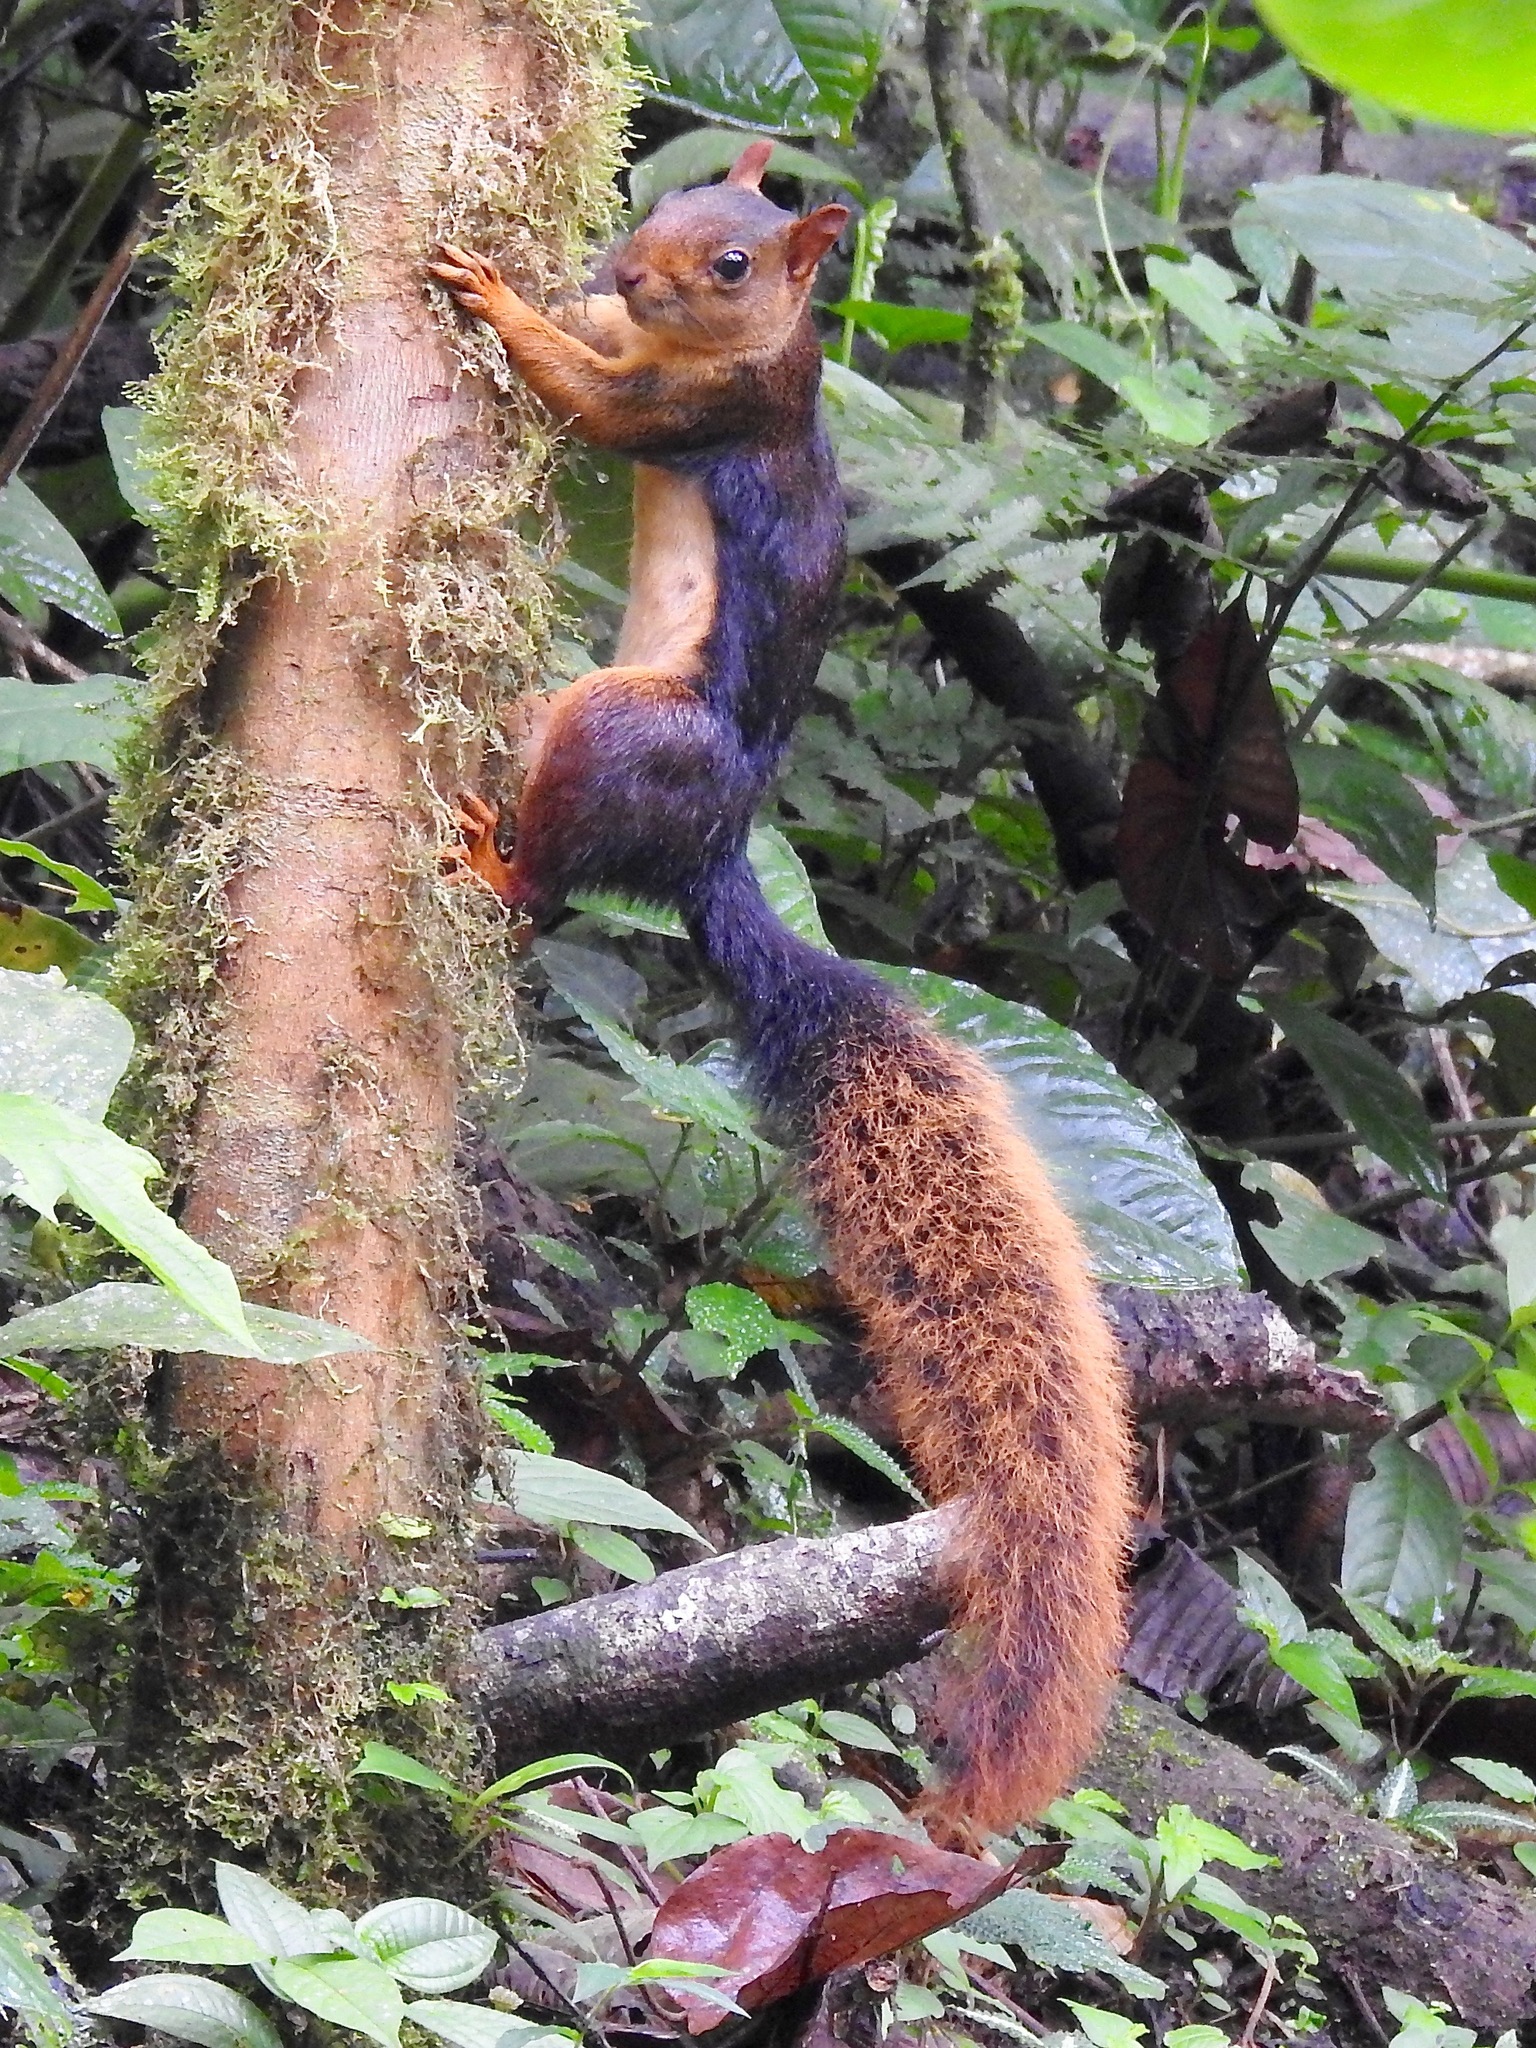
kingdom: Animalia
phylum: Chordata
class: Mammalia
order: Rodentia
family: Sciuridae
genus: Sciurus
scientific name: Sciurus igniventris
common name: Northern amazon red squirrel
